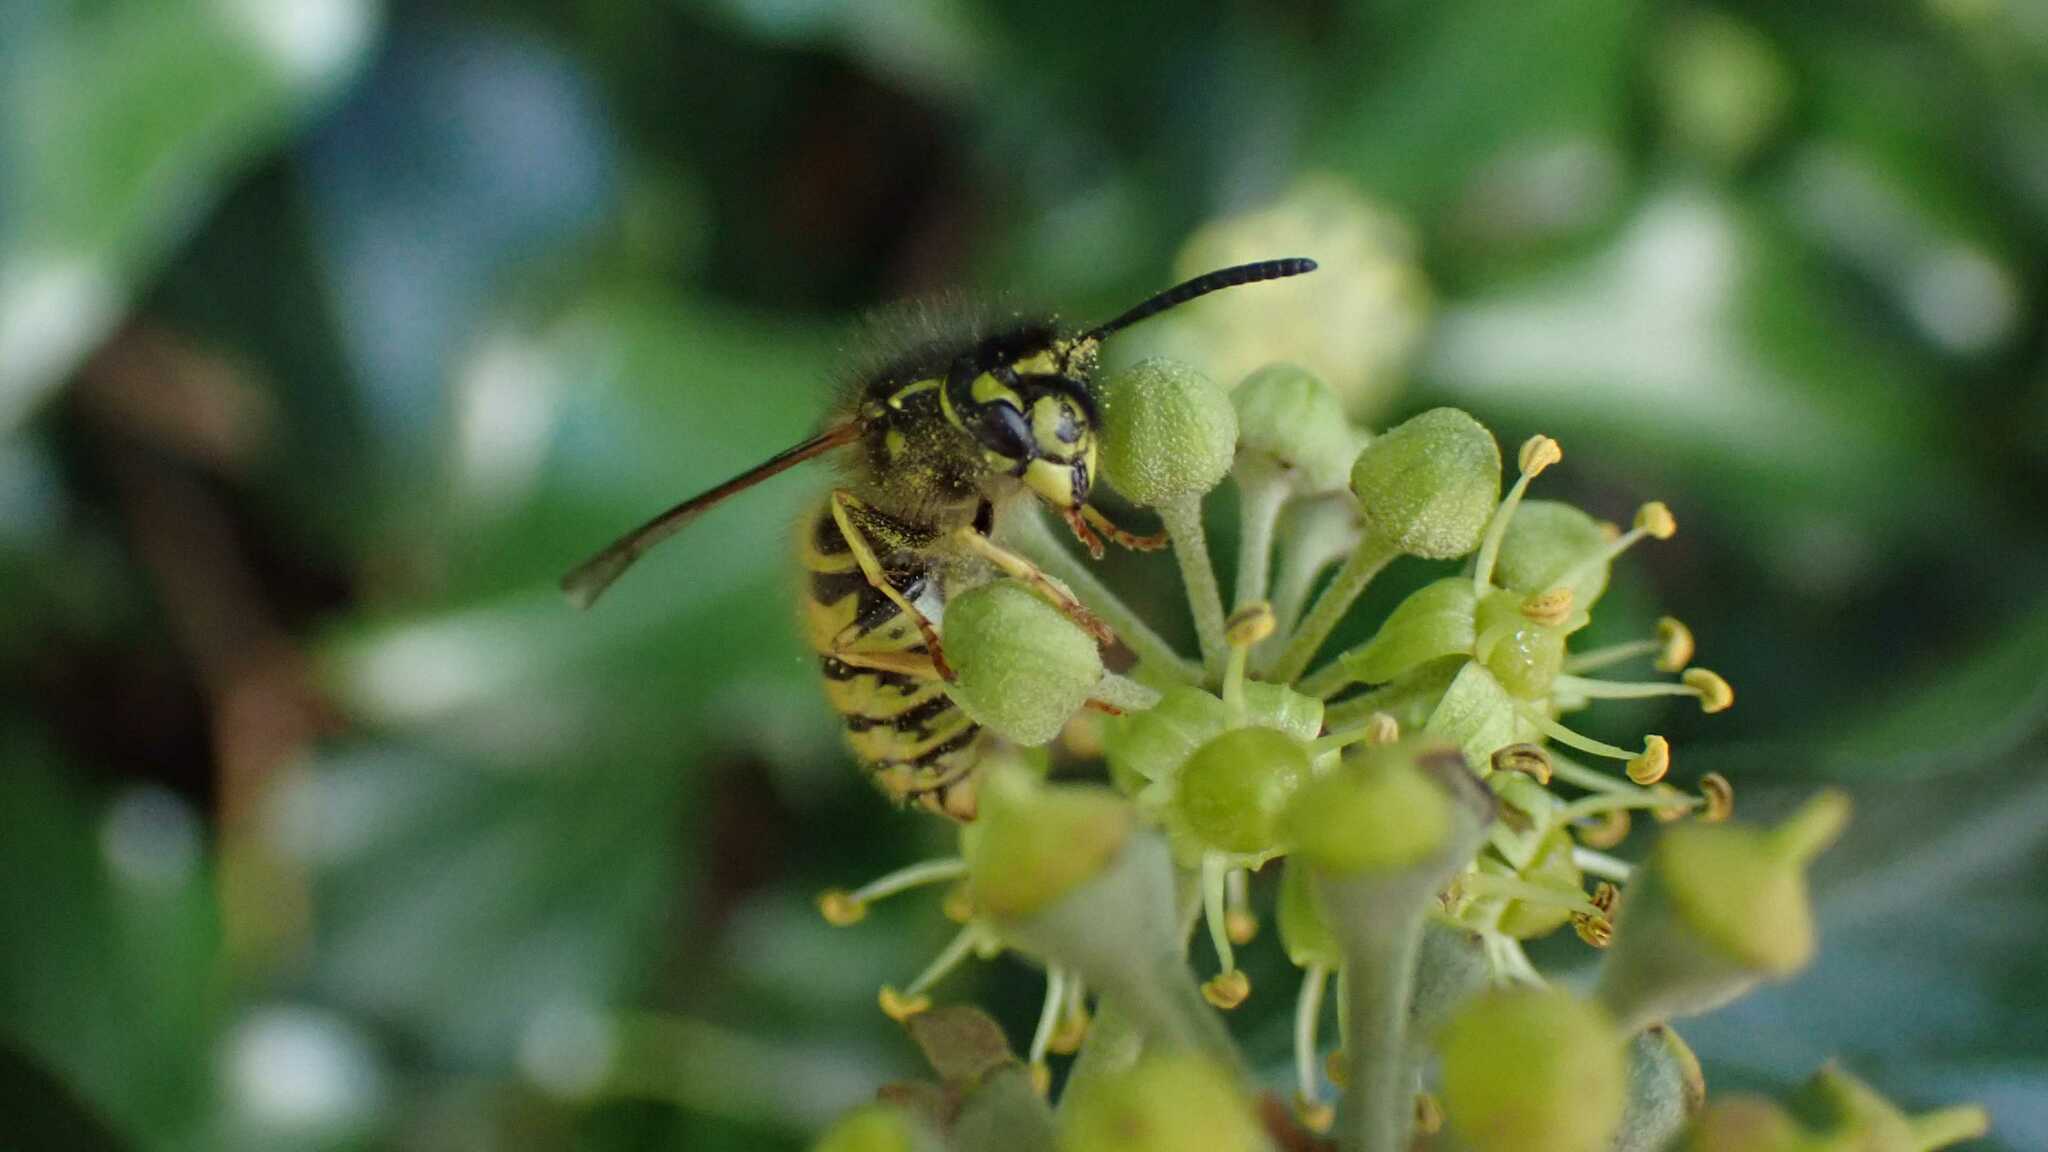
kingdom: Animalia
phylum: Arthropoda
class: Insecta
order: Hymenoptera
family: Vespidae
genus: Vespula
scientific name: Vespula vulgaris
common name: Common wasp
